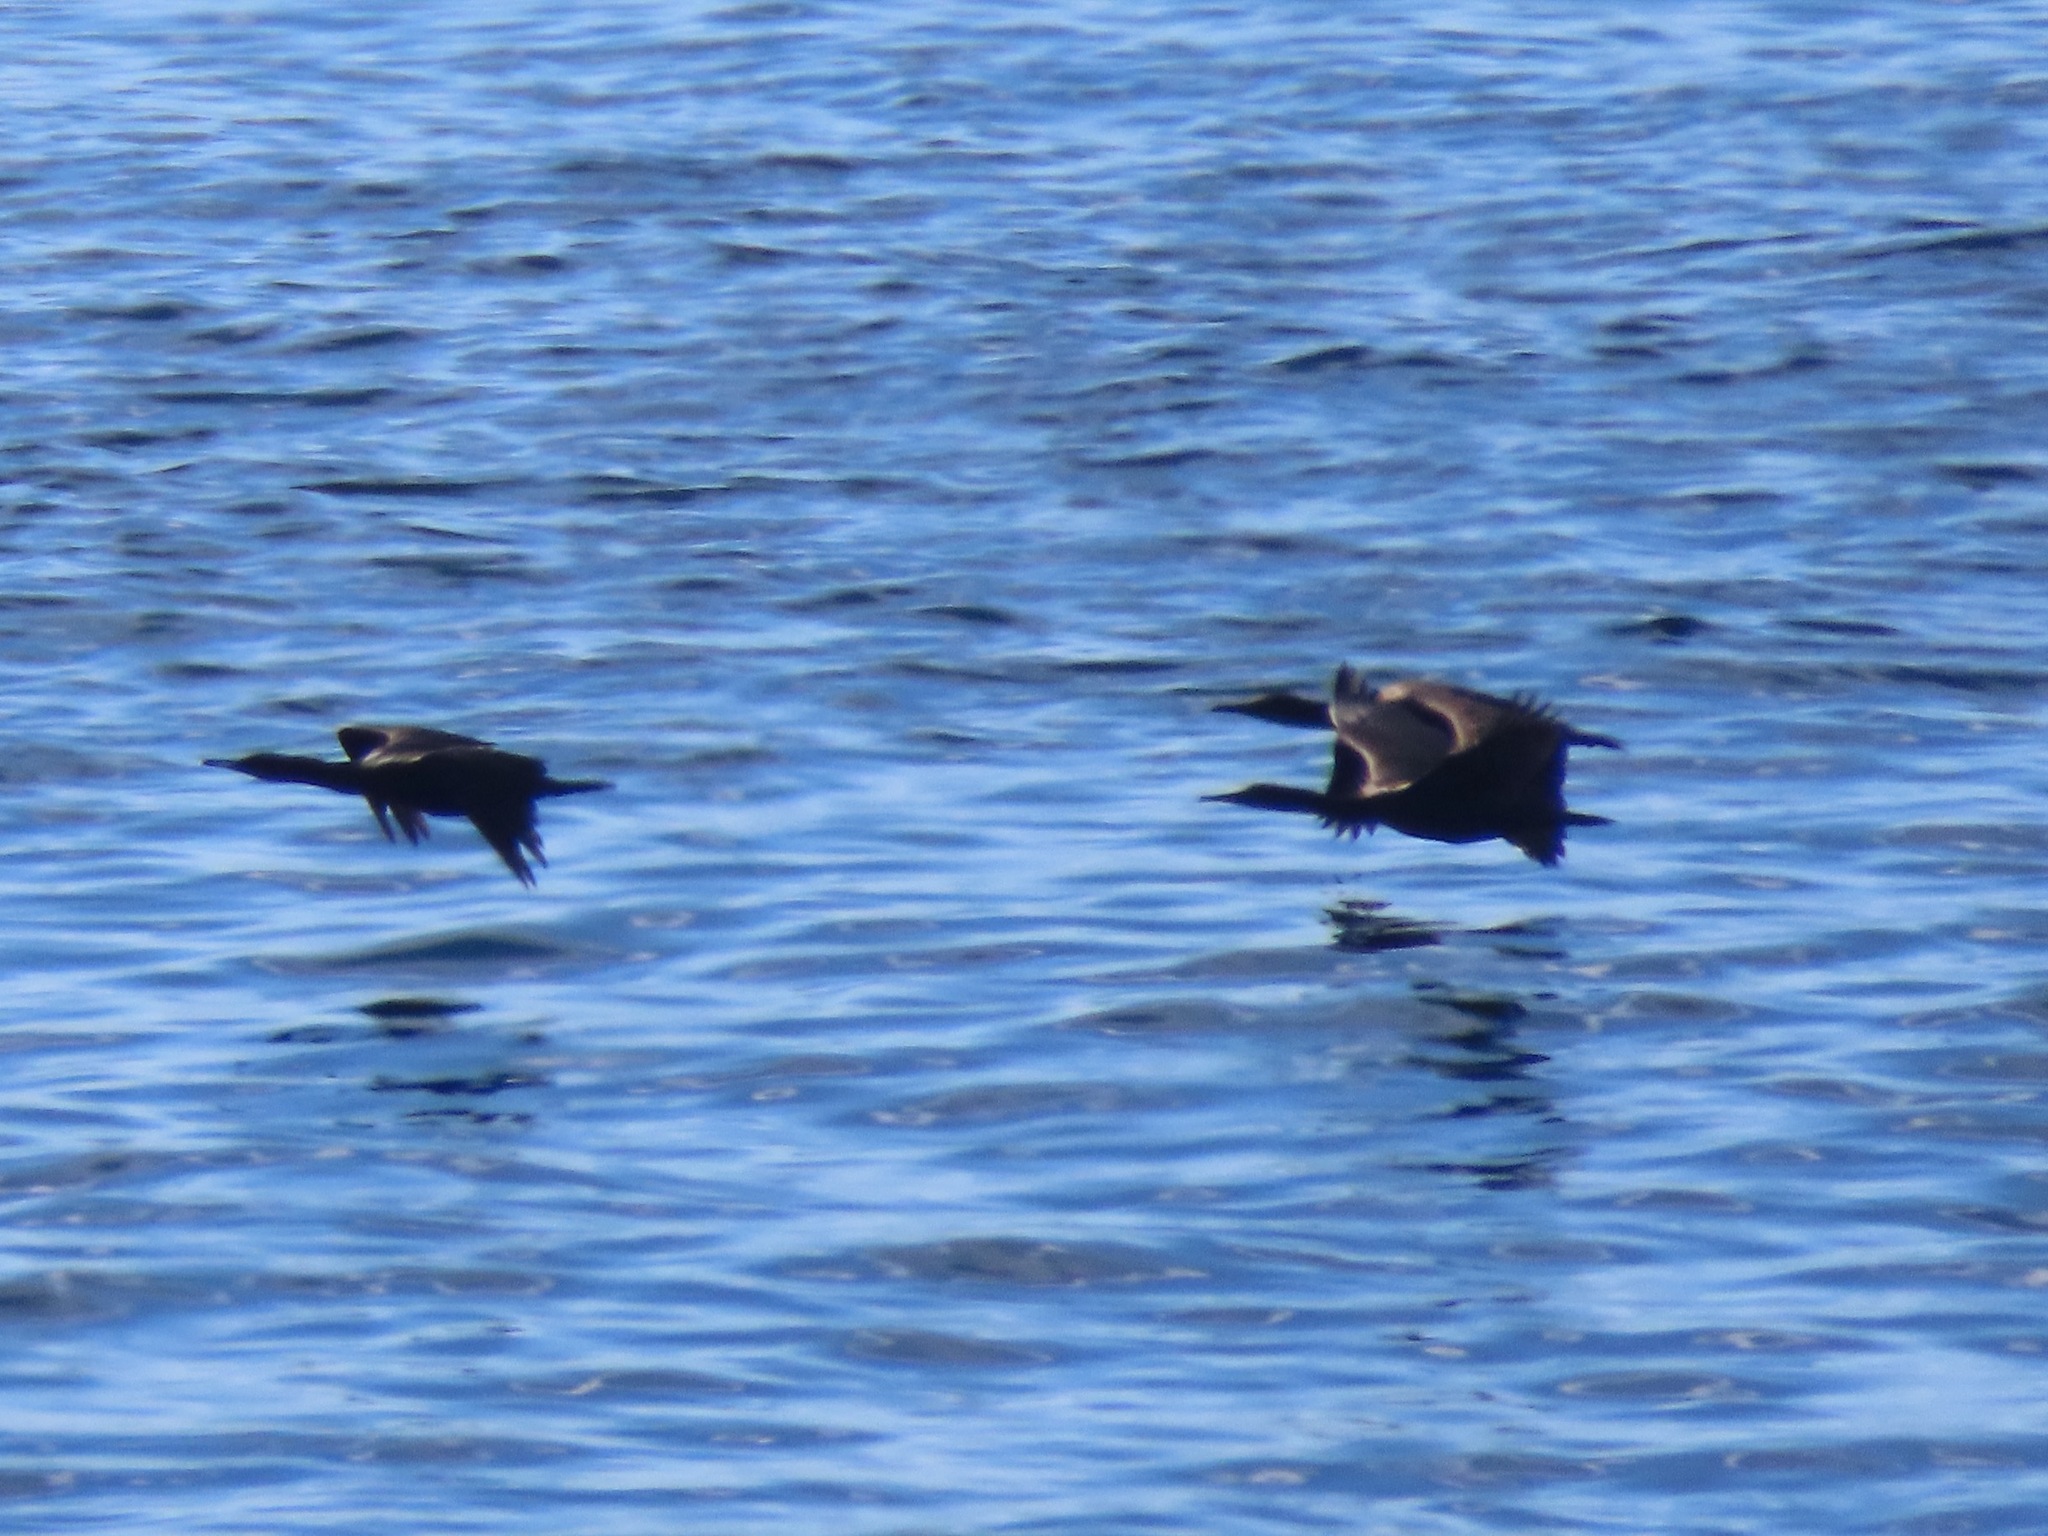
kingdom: Animalia
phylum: Chordata
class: Aves
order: Suliformes
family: Phalacrocoracidae
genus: Urile
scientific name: Urile penicillatus
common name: Brandt's cormorant
